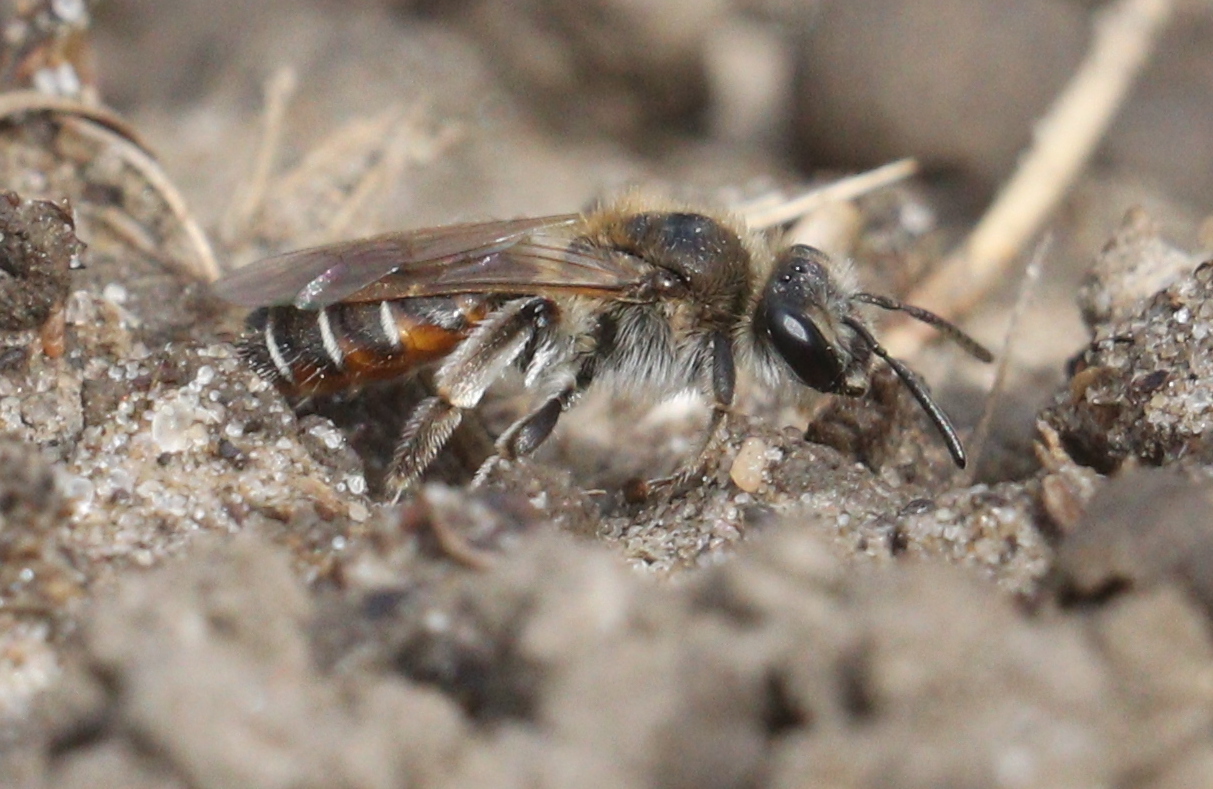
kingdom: Animalia
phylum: Arthropoda
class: Insecta
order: Hymenoptera
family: Andrenidae
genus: Andrena
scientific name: Andrena ventralis
